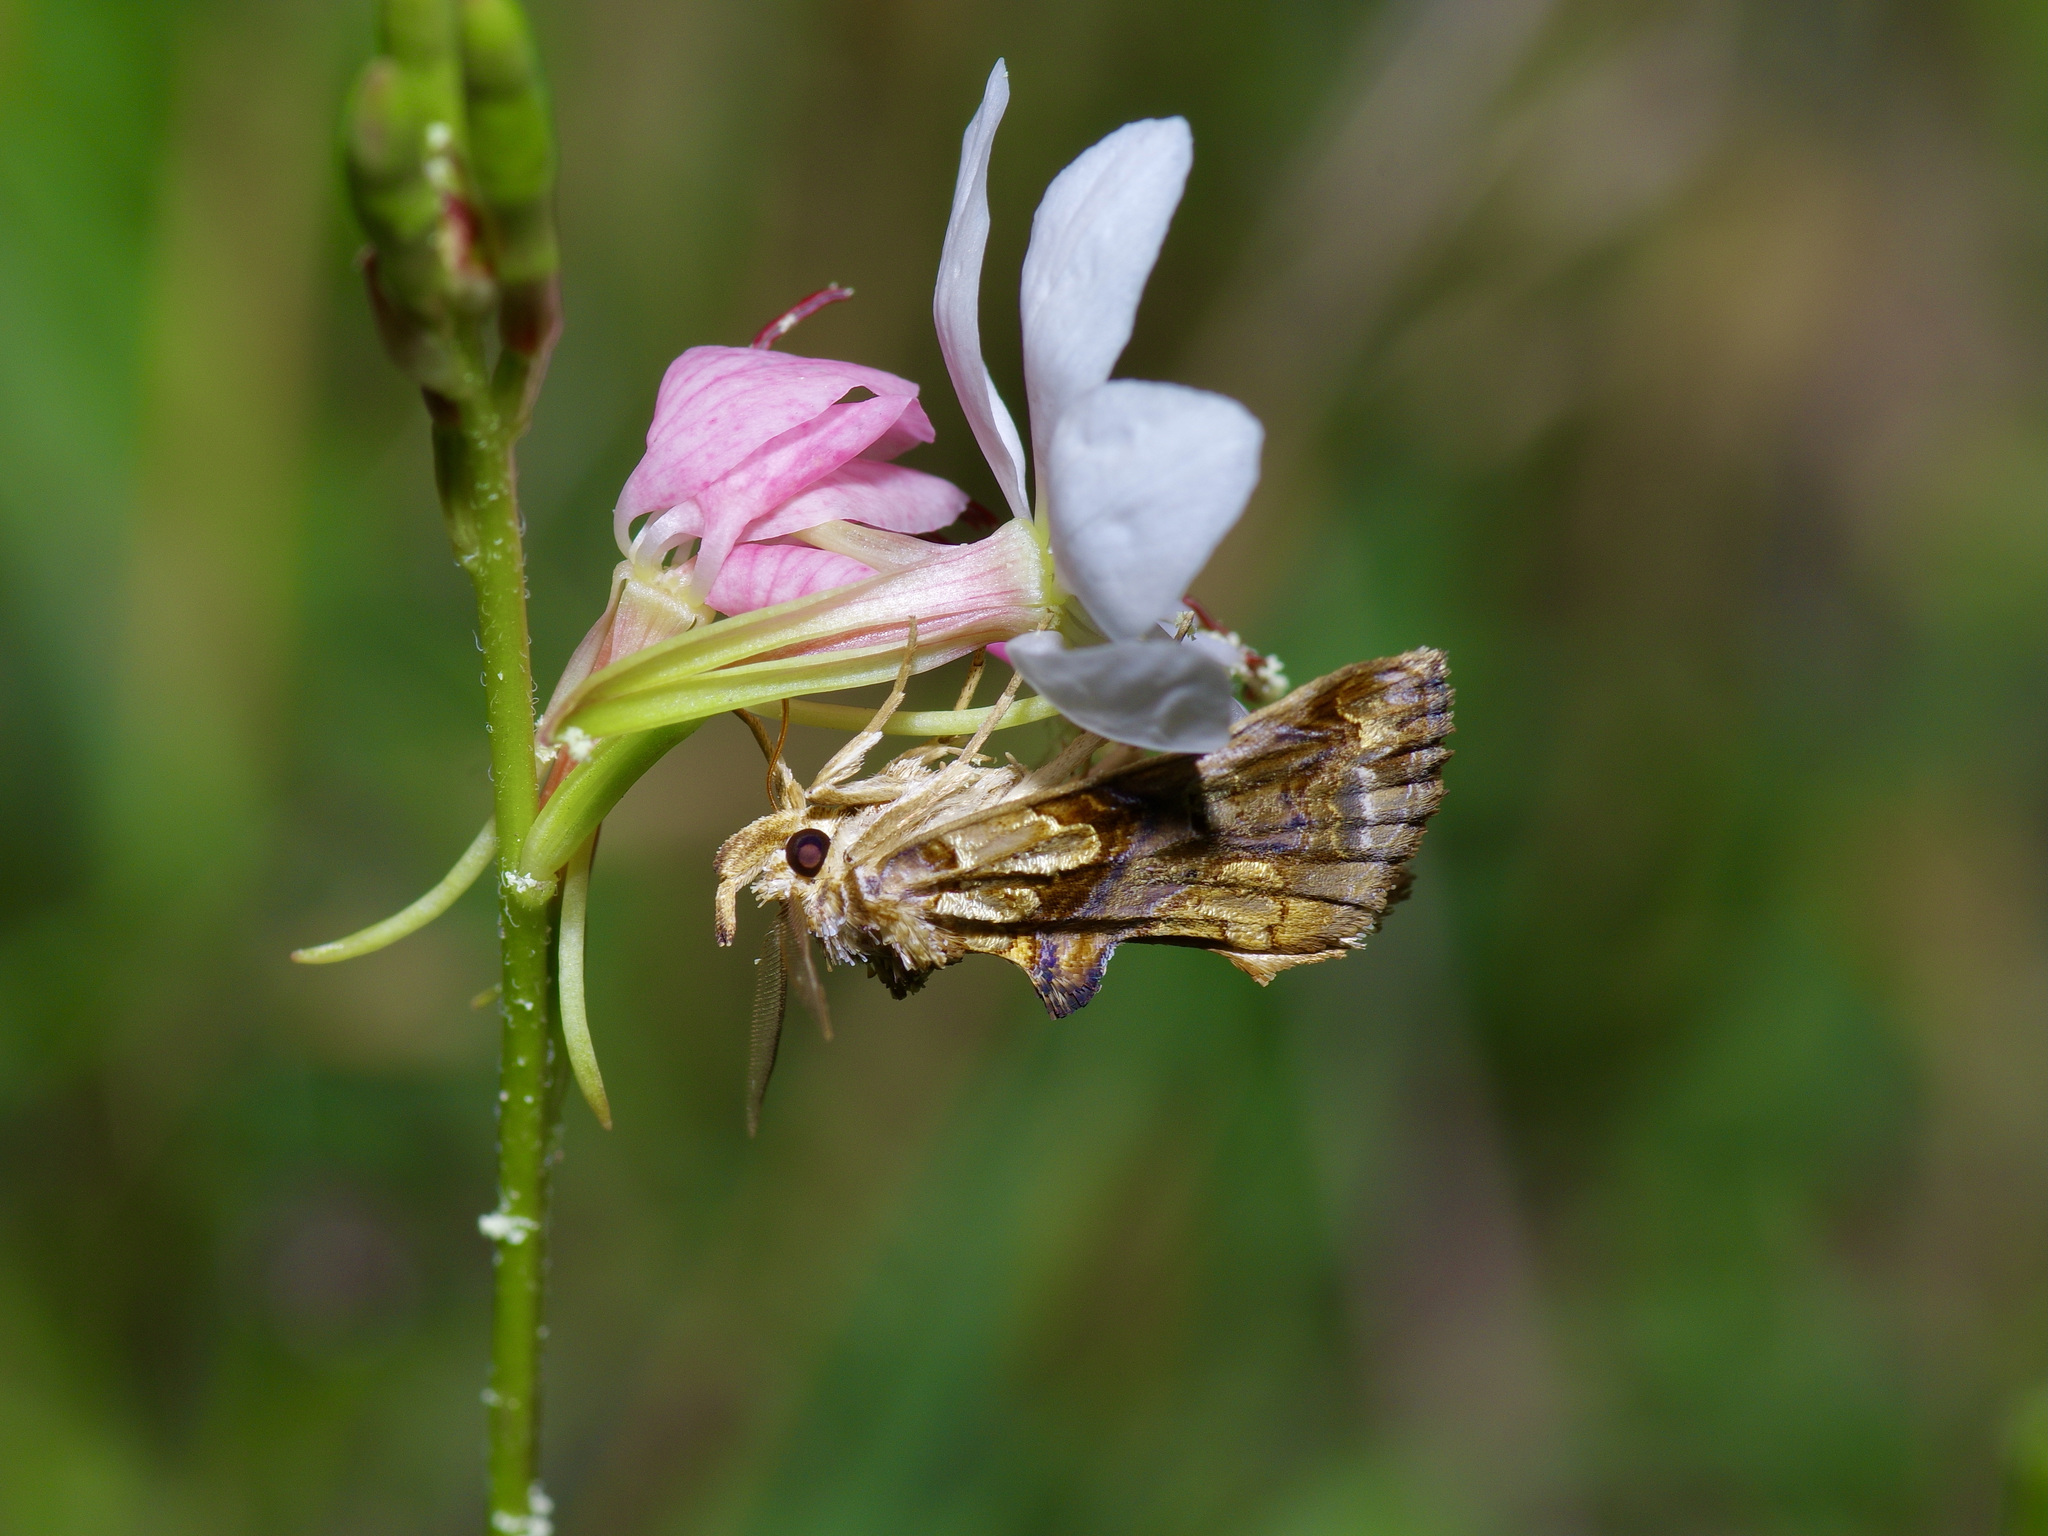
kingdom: Animalia
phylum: Arthropoda
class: Insecta
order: Lepidoptera
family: Erebidae
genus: Plusiodonta
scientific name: Plusiodonta compressipalpis
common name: Moonseed moth
